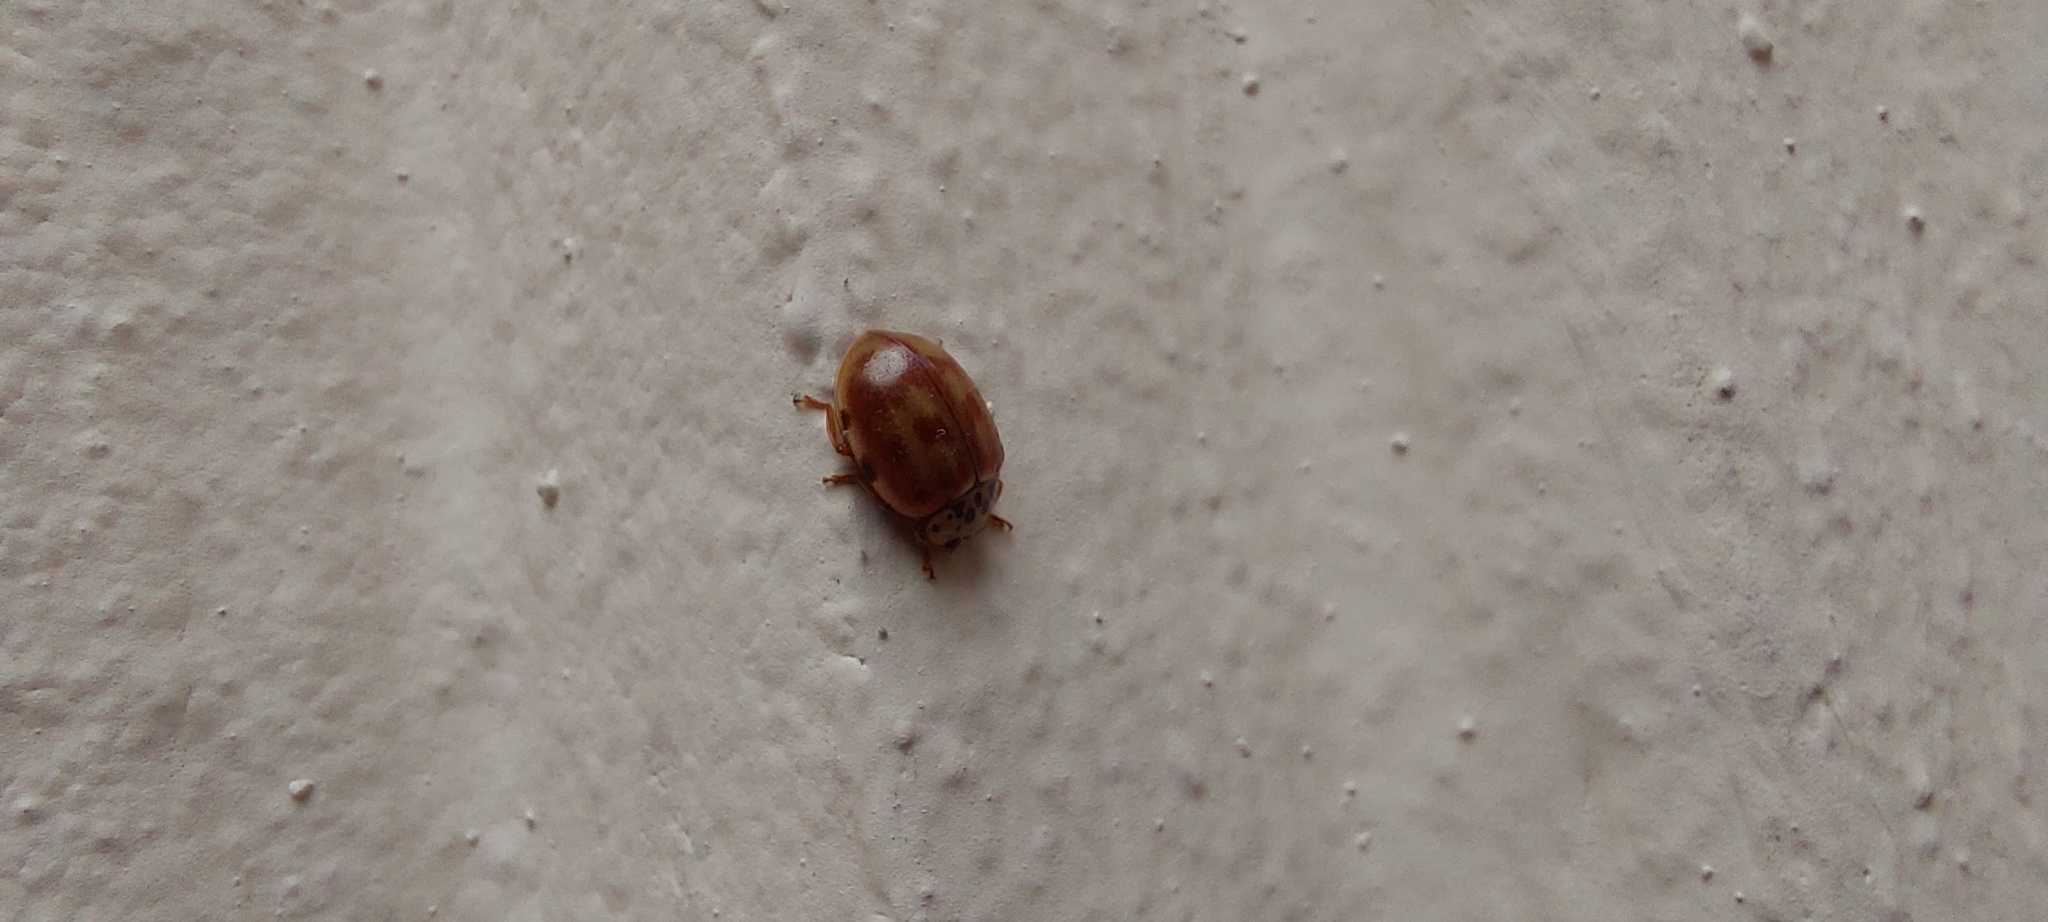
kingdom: Animalia
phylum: Arthropoda
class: Insecta
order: Coleoptera
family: Coccinellidae
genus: Harmonia
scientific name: Harmonia quadripunctata
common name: Cream-streaked ladybird
